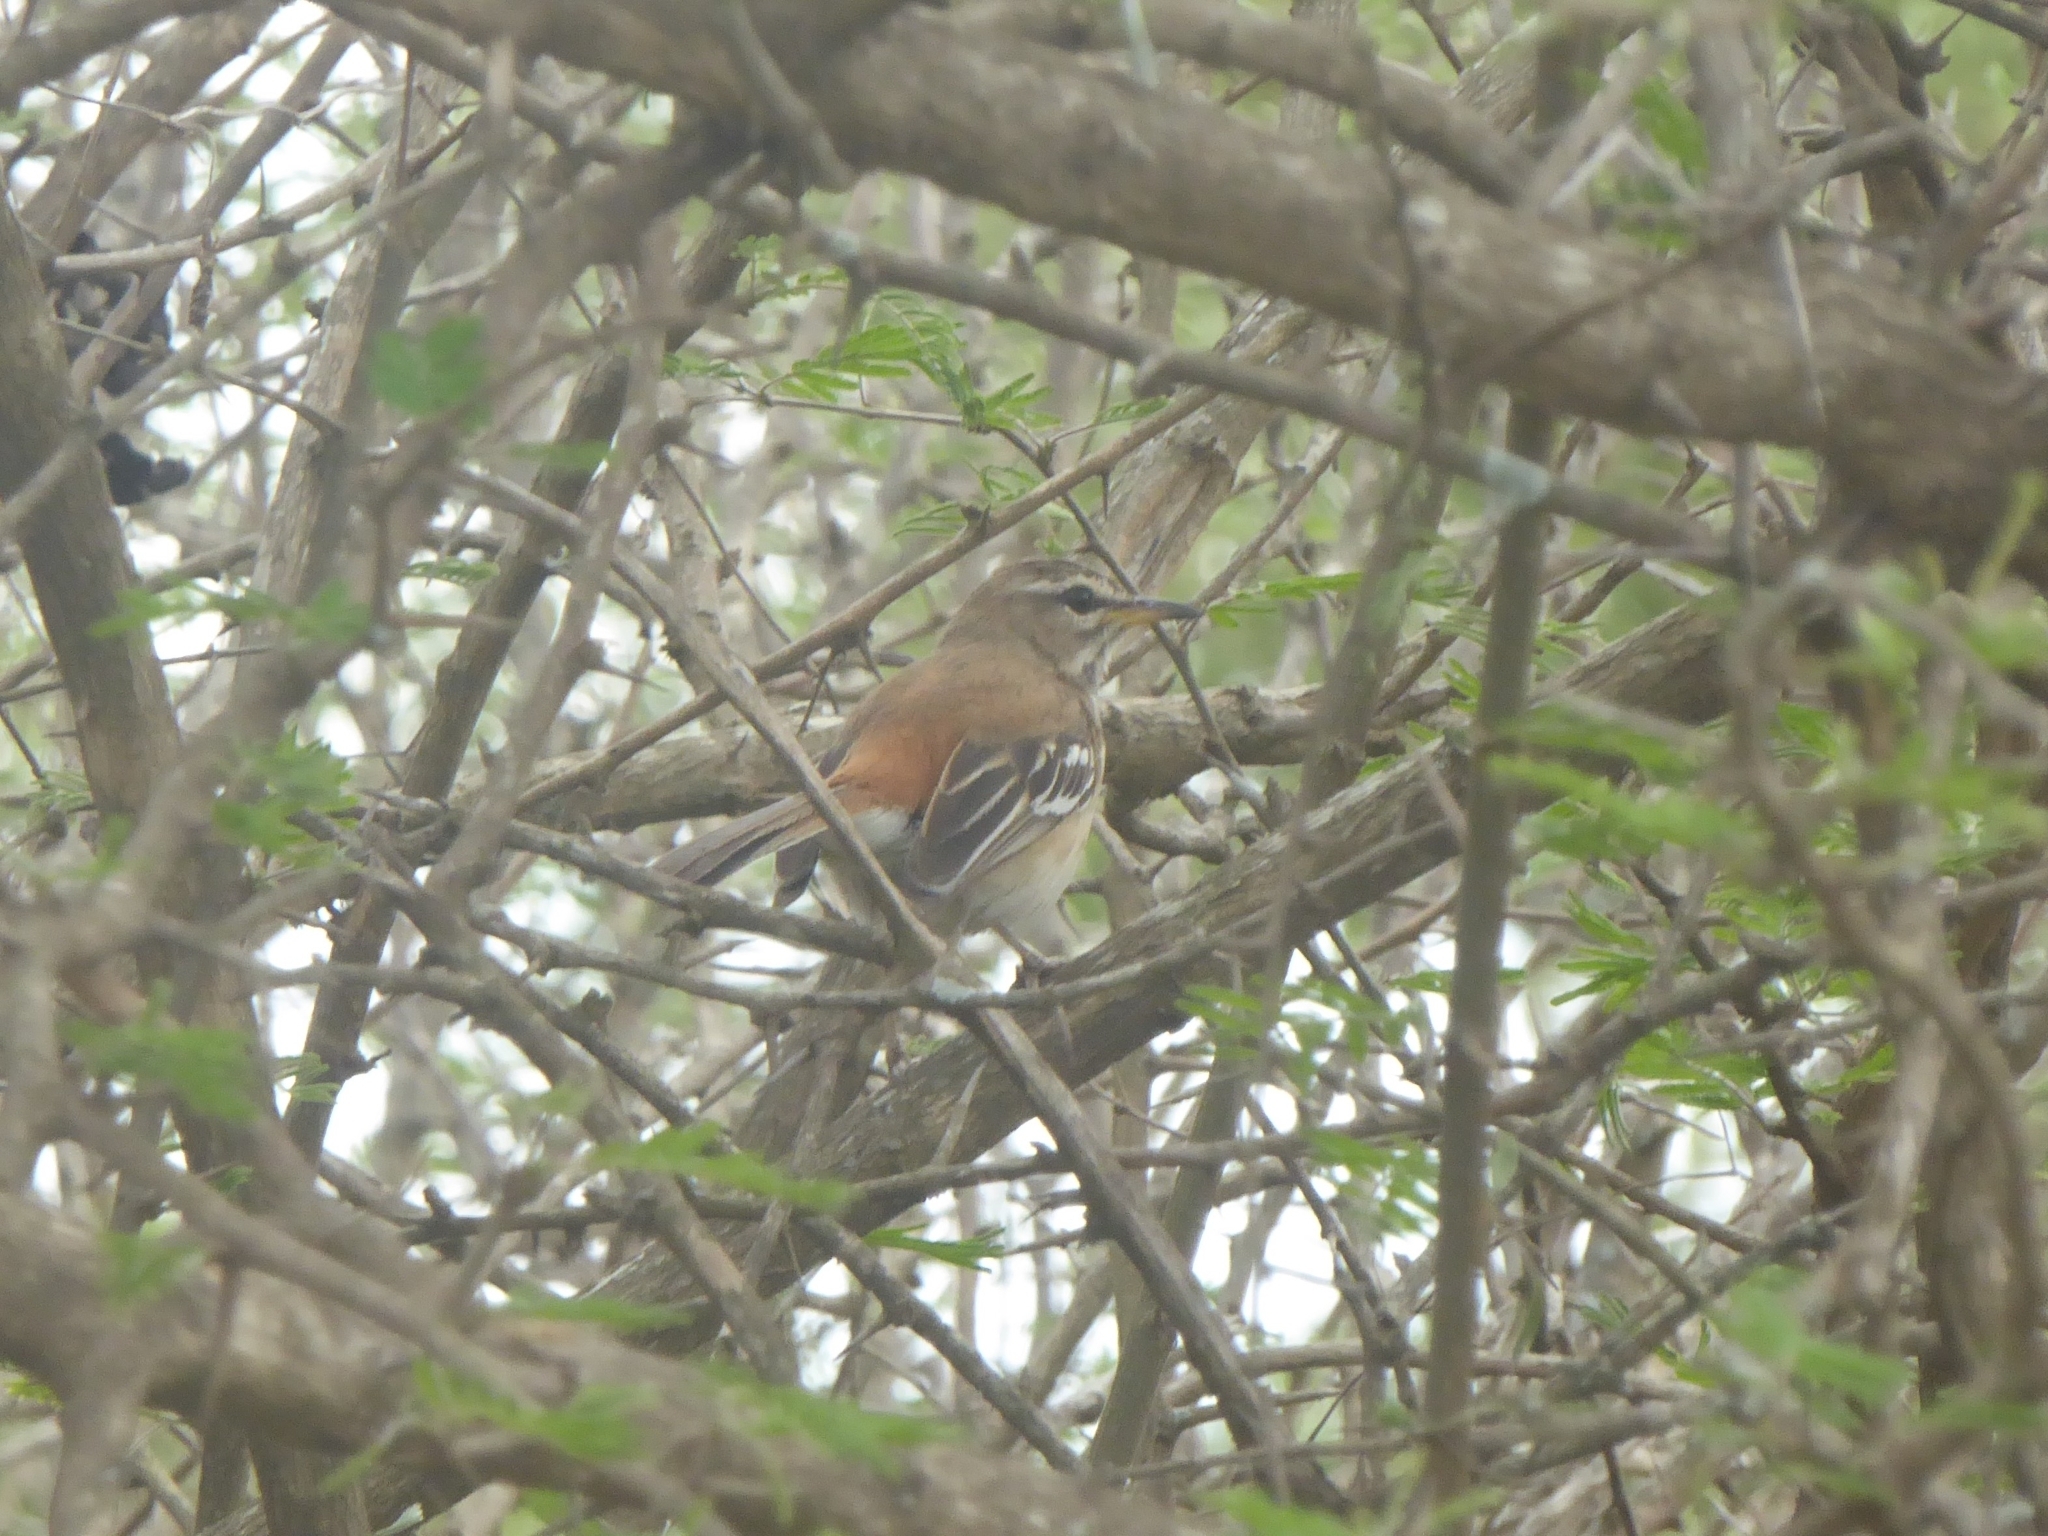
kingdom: Animalia
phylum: Chordata
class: Aves
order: Passeriformes
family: Muscicapidae
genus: Erythropygia
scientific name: Erythropygia leucophrys
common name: White-browed scrub robin
